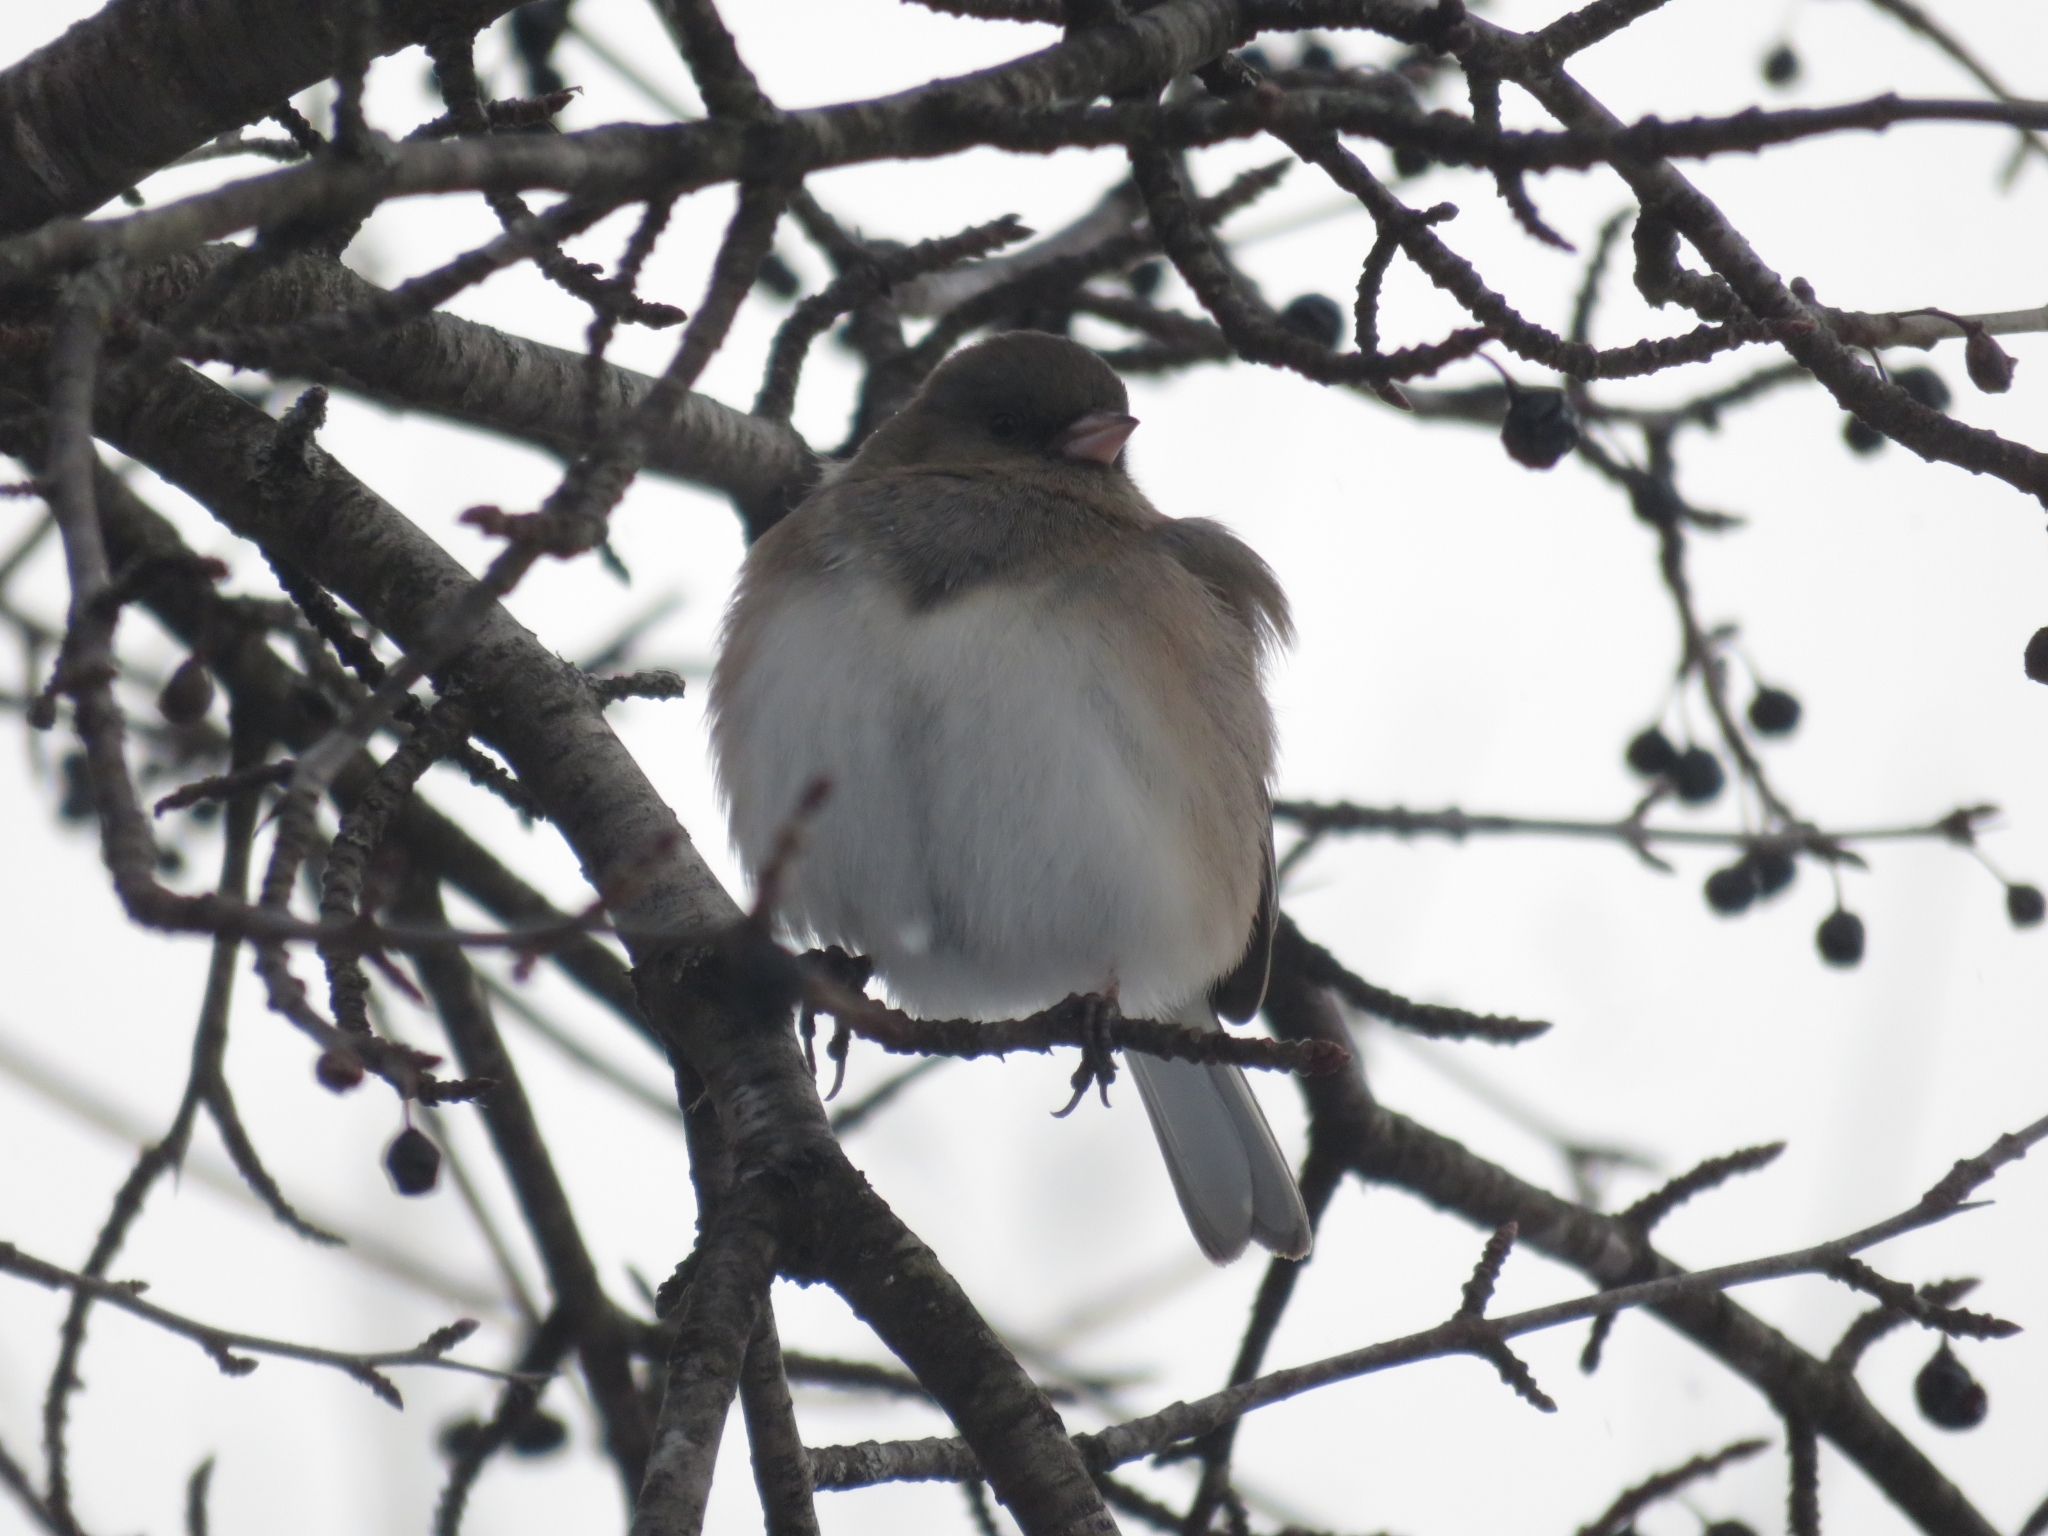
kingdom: Animalia
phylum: Chordata
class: Aves
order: Passeriformes
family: Passerellidae
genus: Junco
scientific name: Junco hyemalis
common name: Dark-eyed junco
